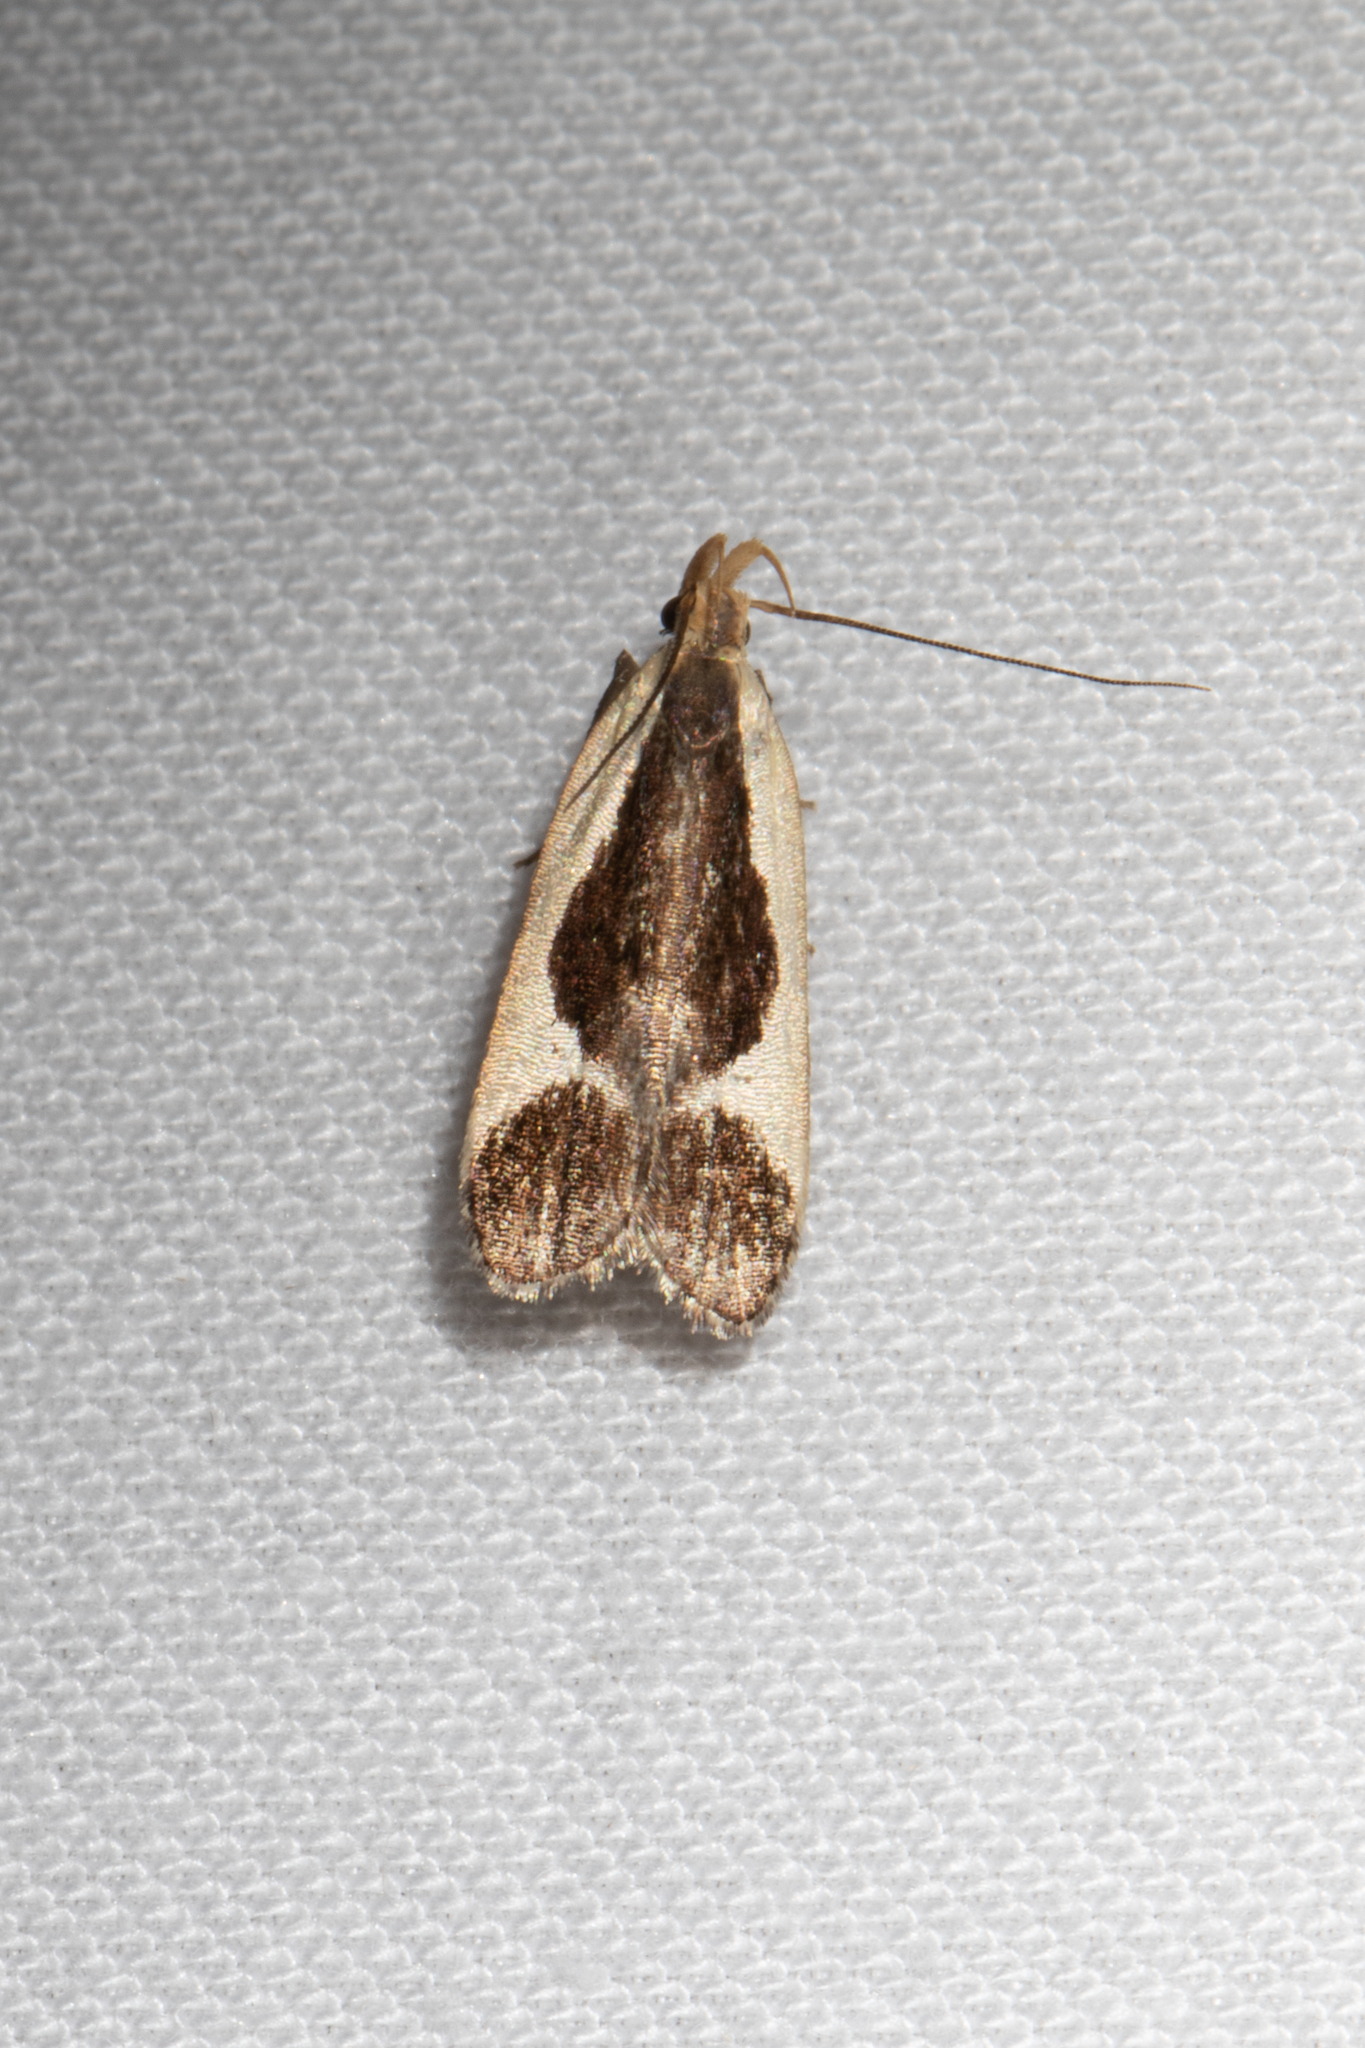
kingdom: Animalia
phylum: Arthropoda
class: Insecta
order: Lepidoptera
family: Gelechiidae
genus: Dichomeris
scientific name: Dichomeris flavocostella
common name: Cream-edged dichomeris moth
